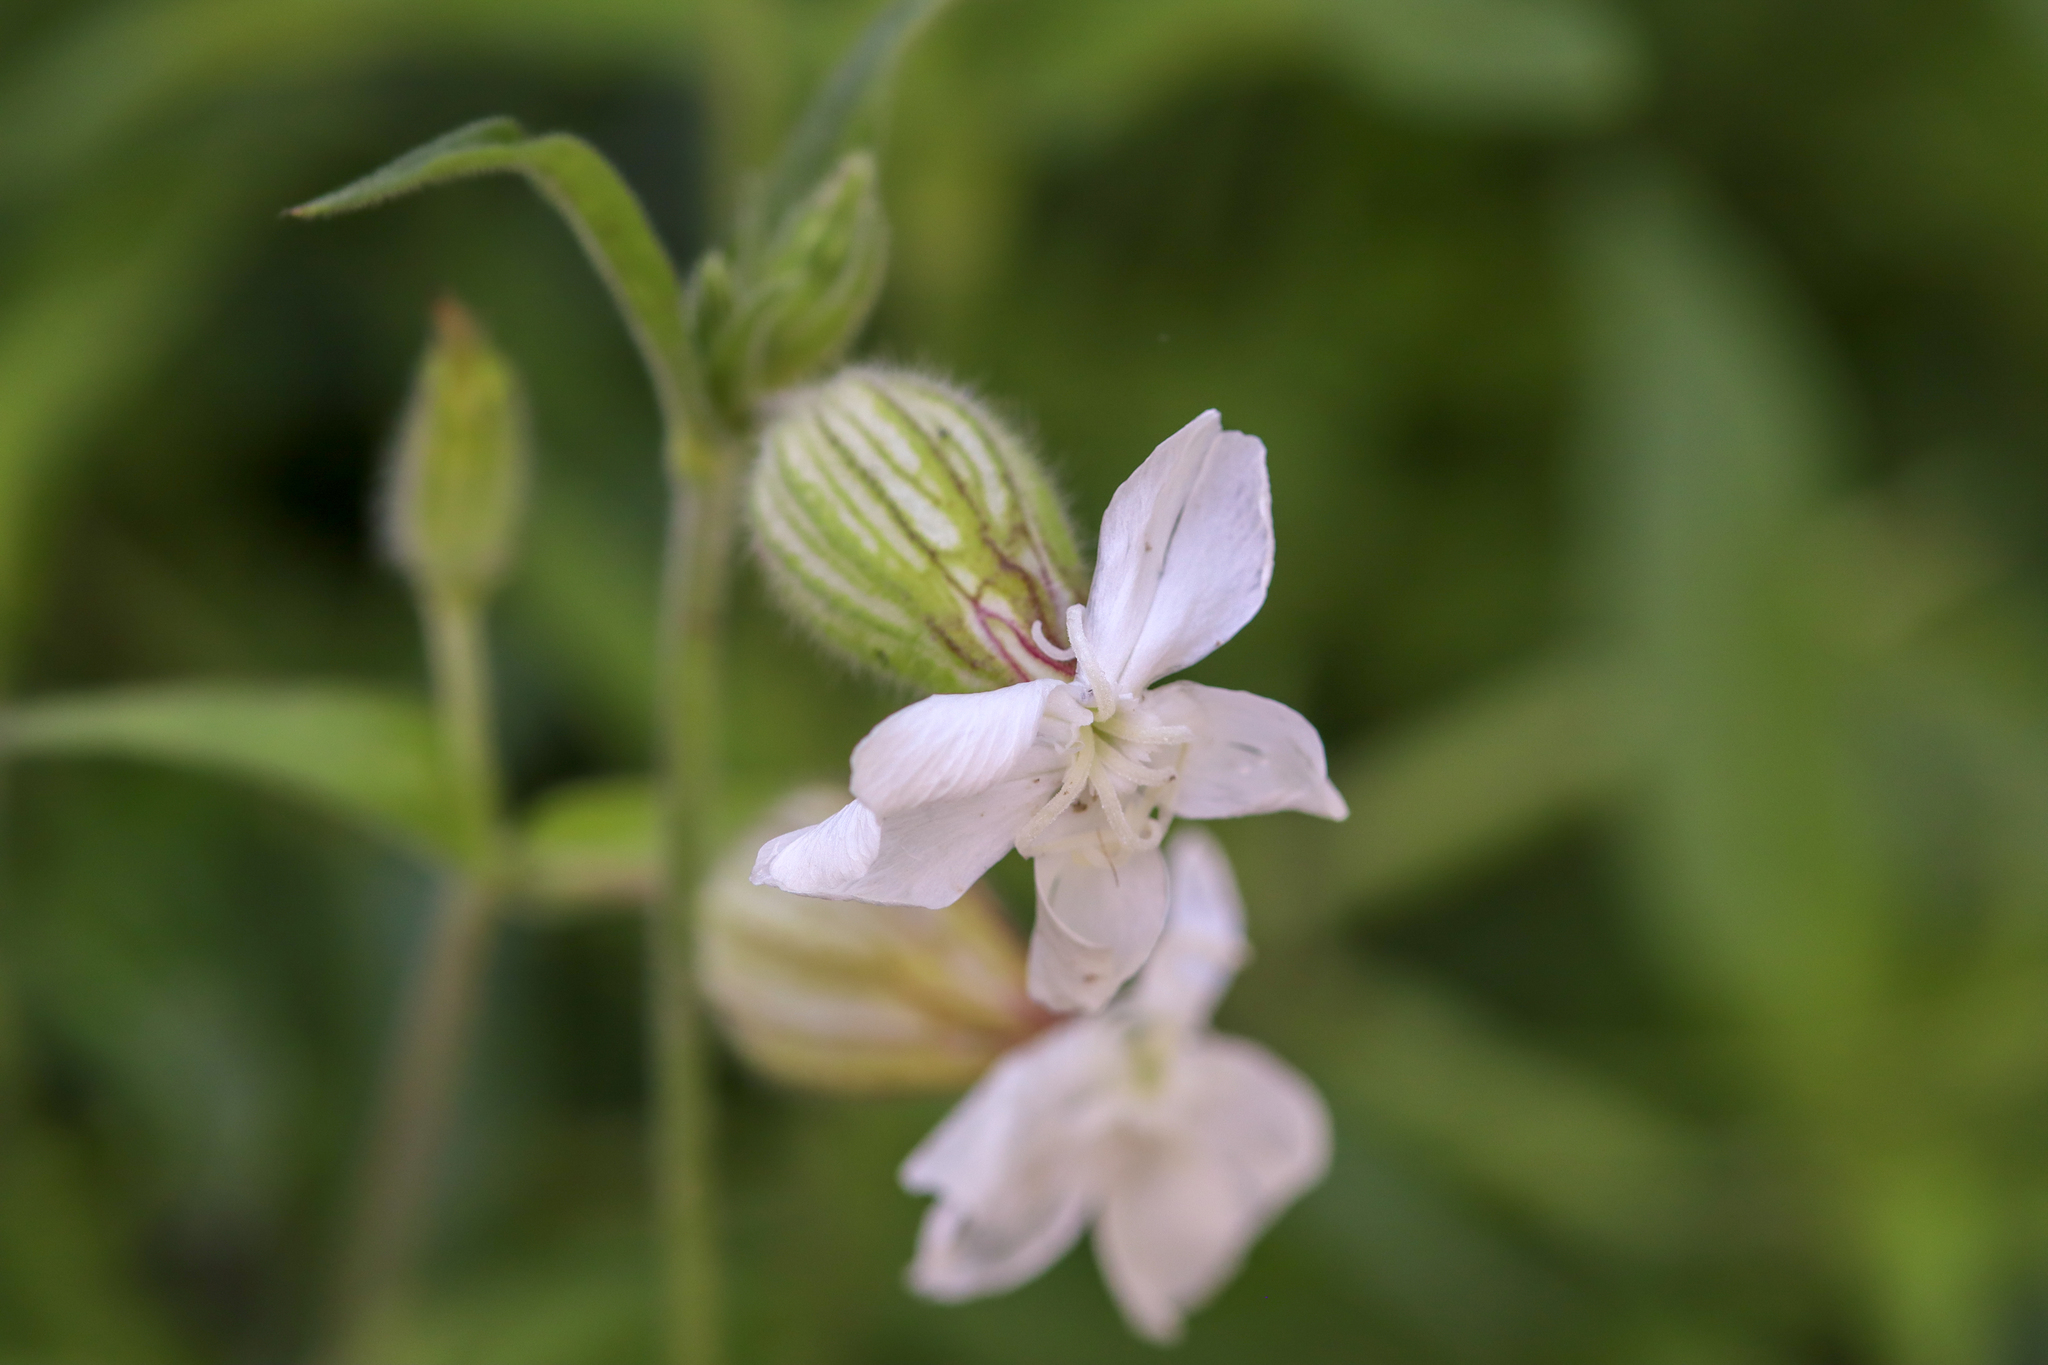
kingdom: Plantae
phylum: Tracheophyta
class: Magnoliopsida
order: Caryophyllales
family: Caryophyllaceae
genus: Silene
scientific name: Silene latifolia
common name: White campion
